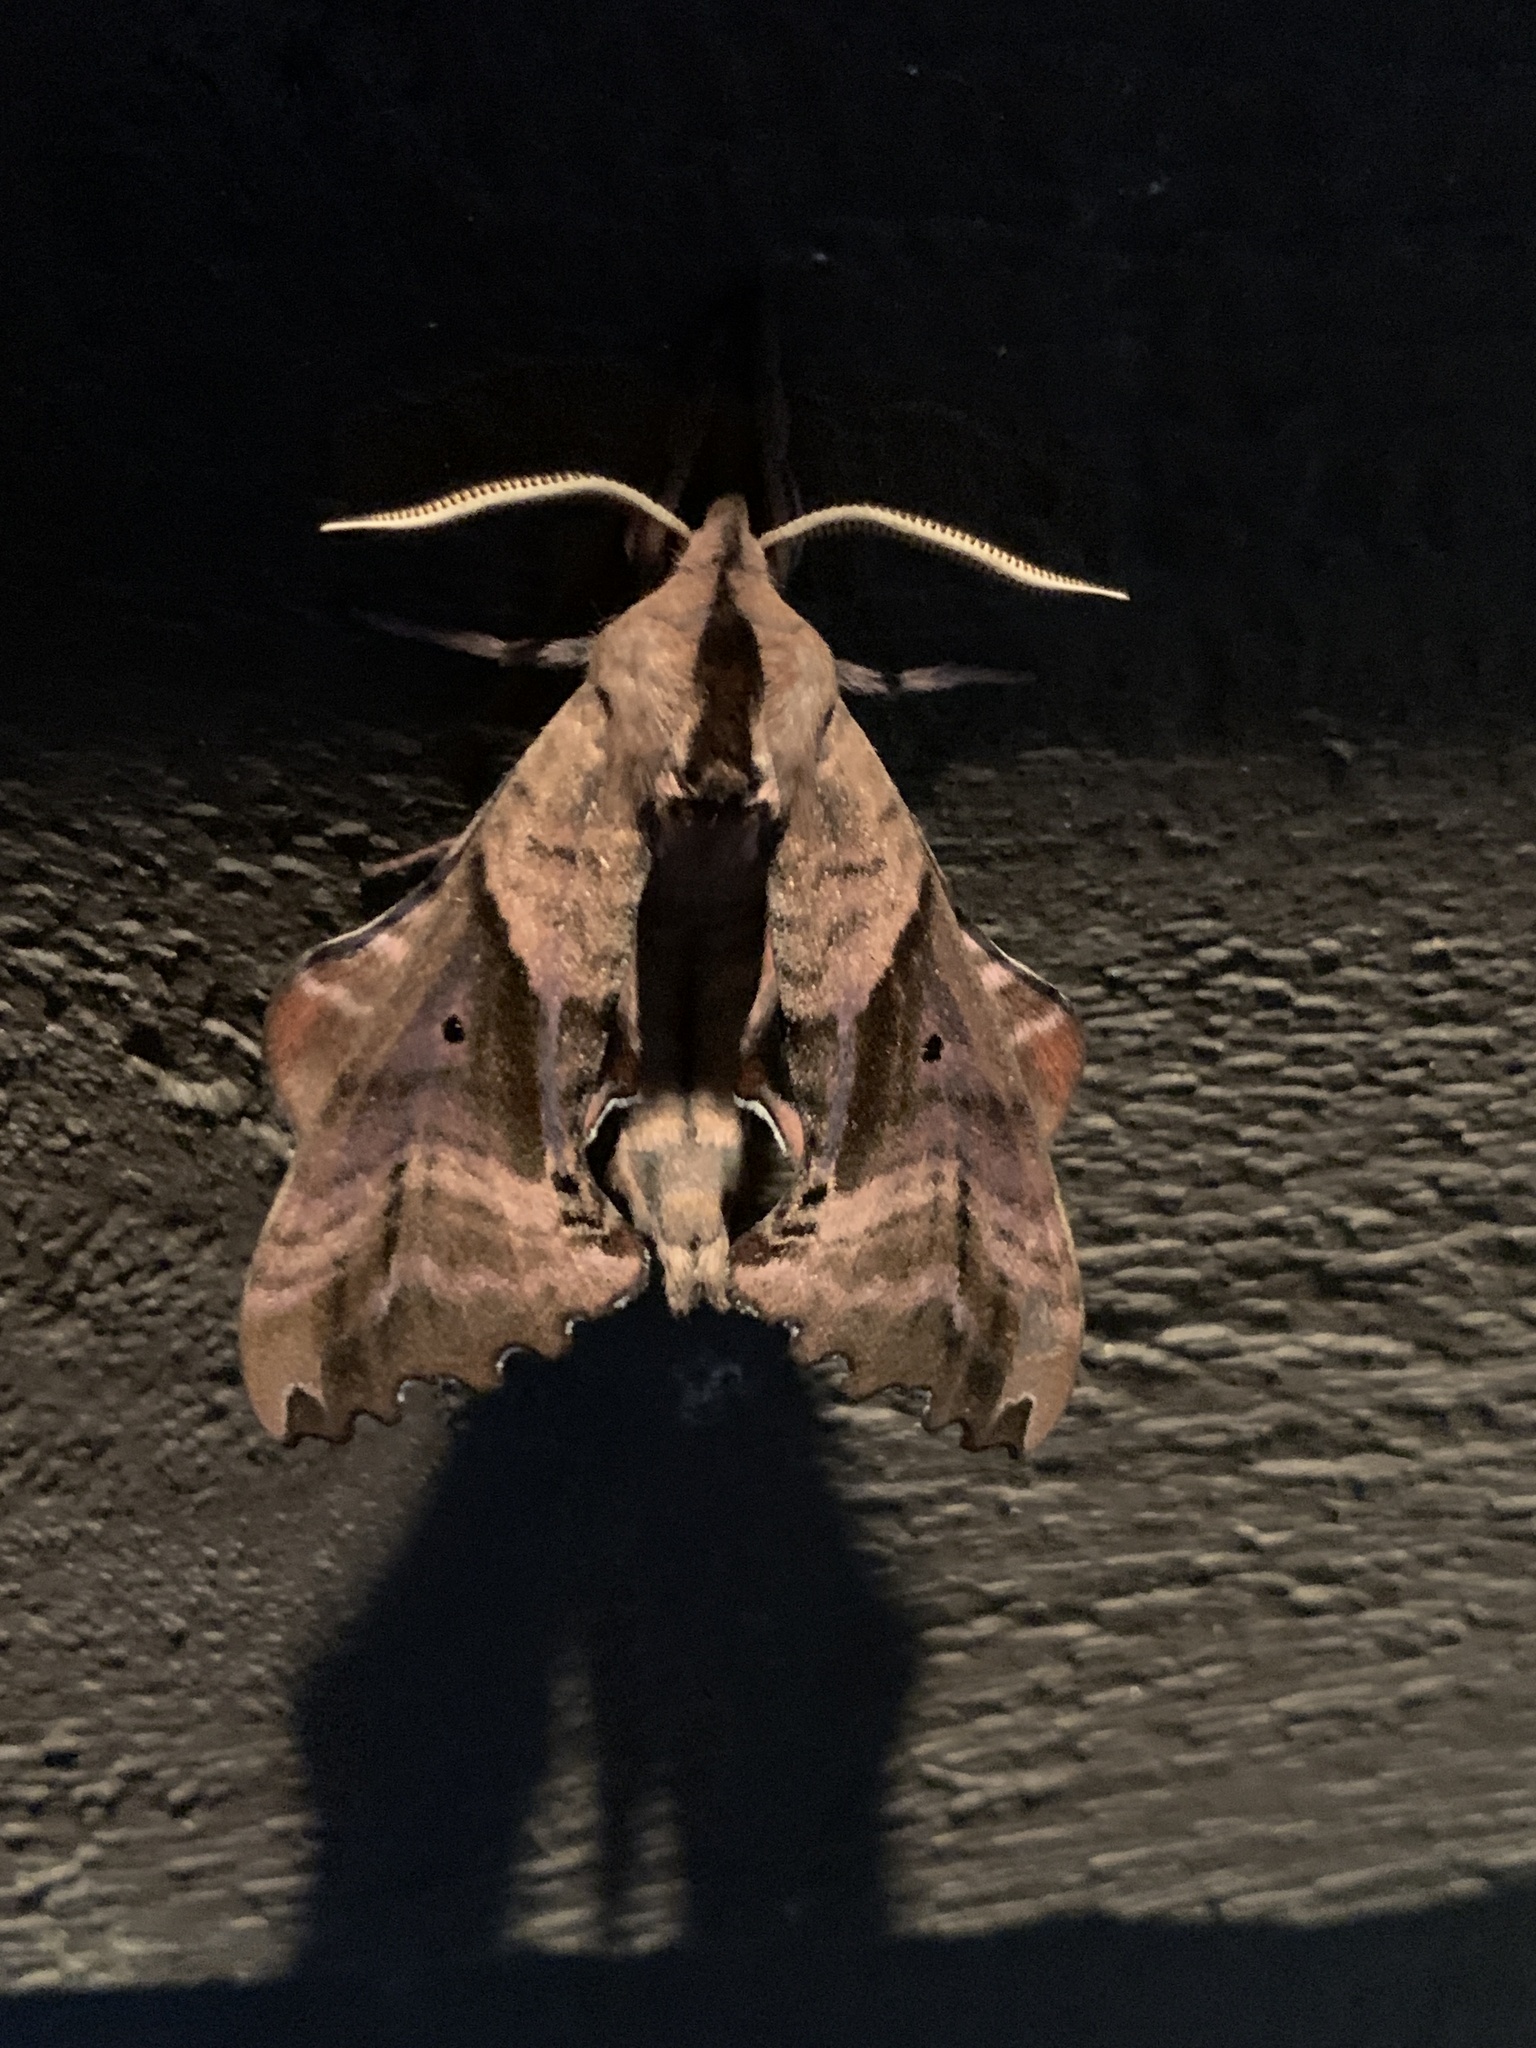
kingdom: Animalia
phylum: Arthropoda
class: Insecta
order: Lepidoptera
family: Sphingidae
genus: Paonias
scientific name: Paonias excaecata
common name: Blind-eyed sphinx
